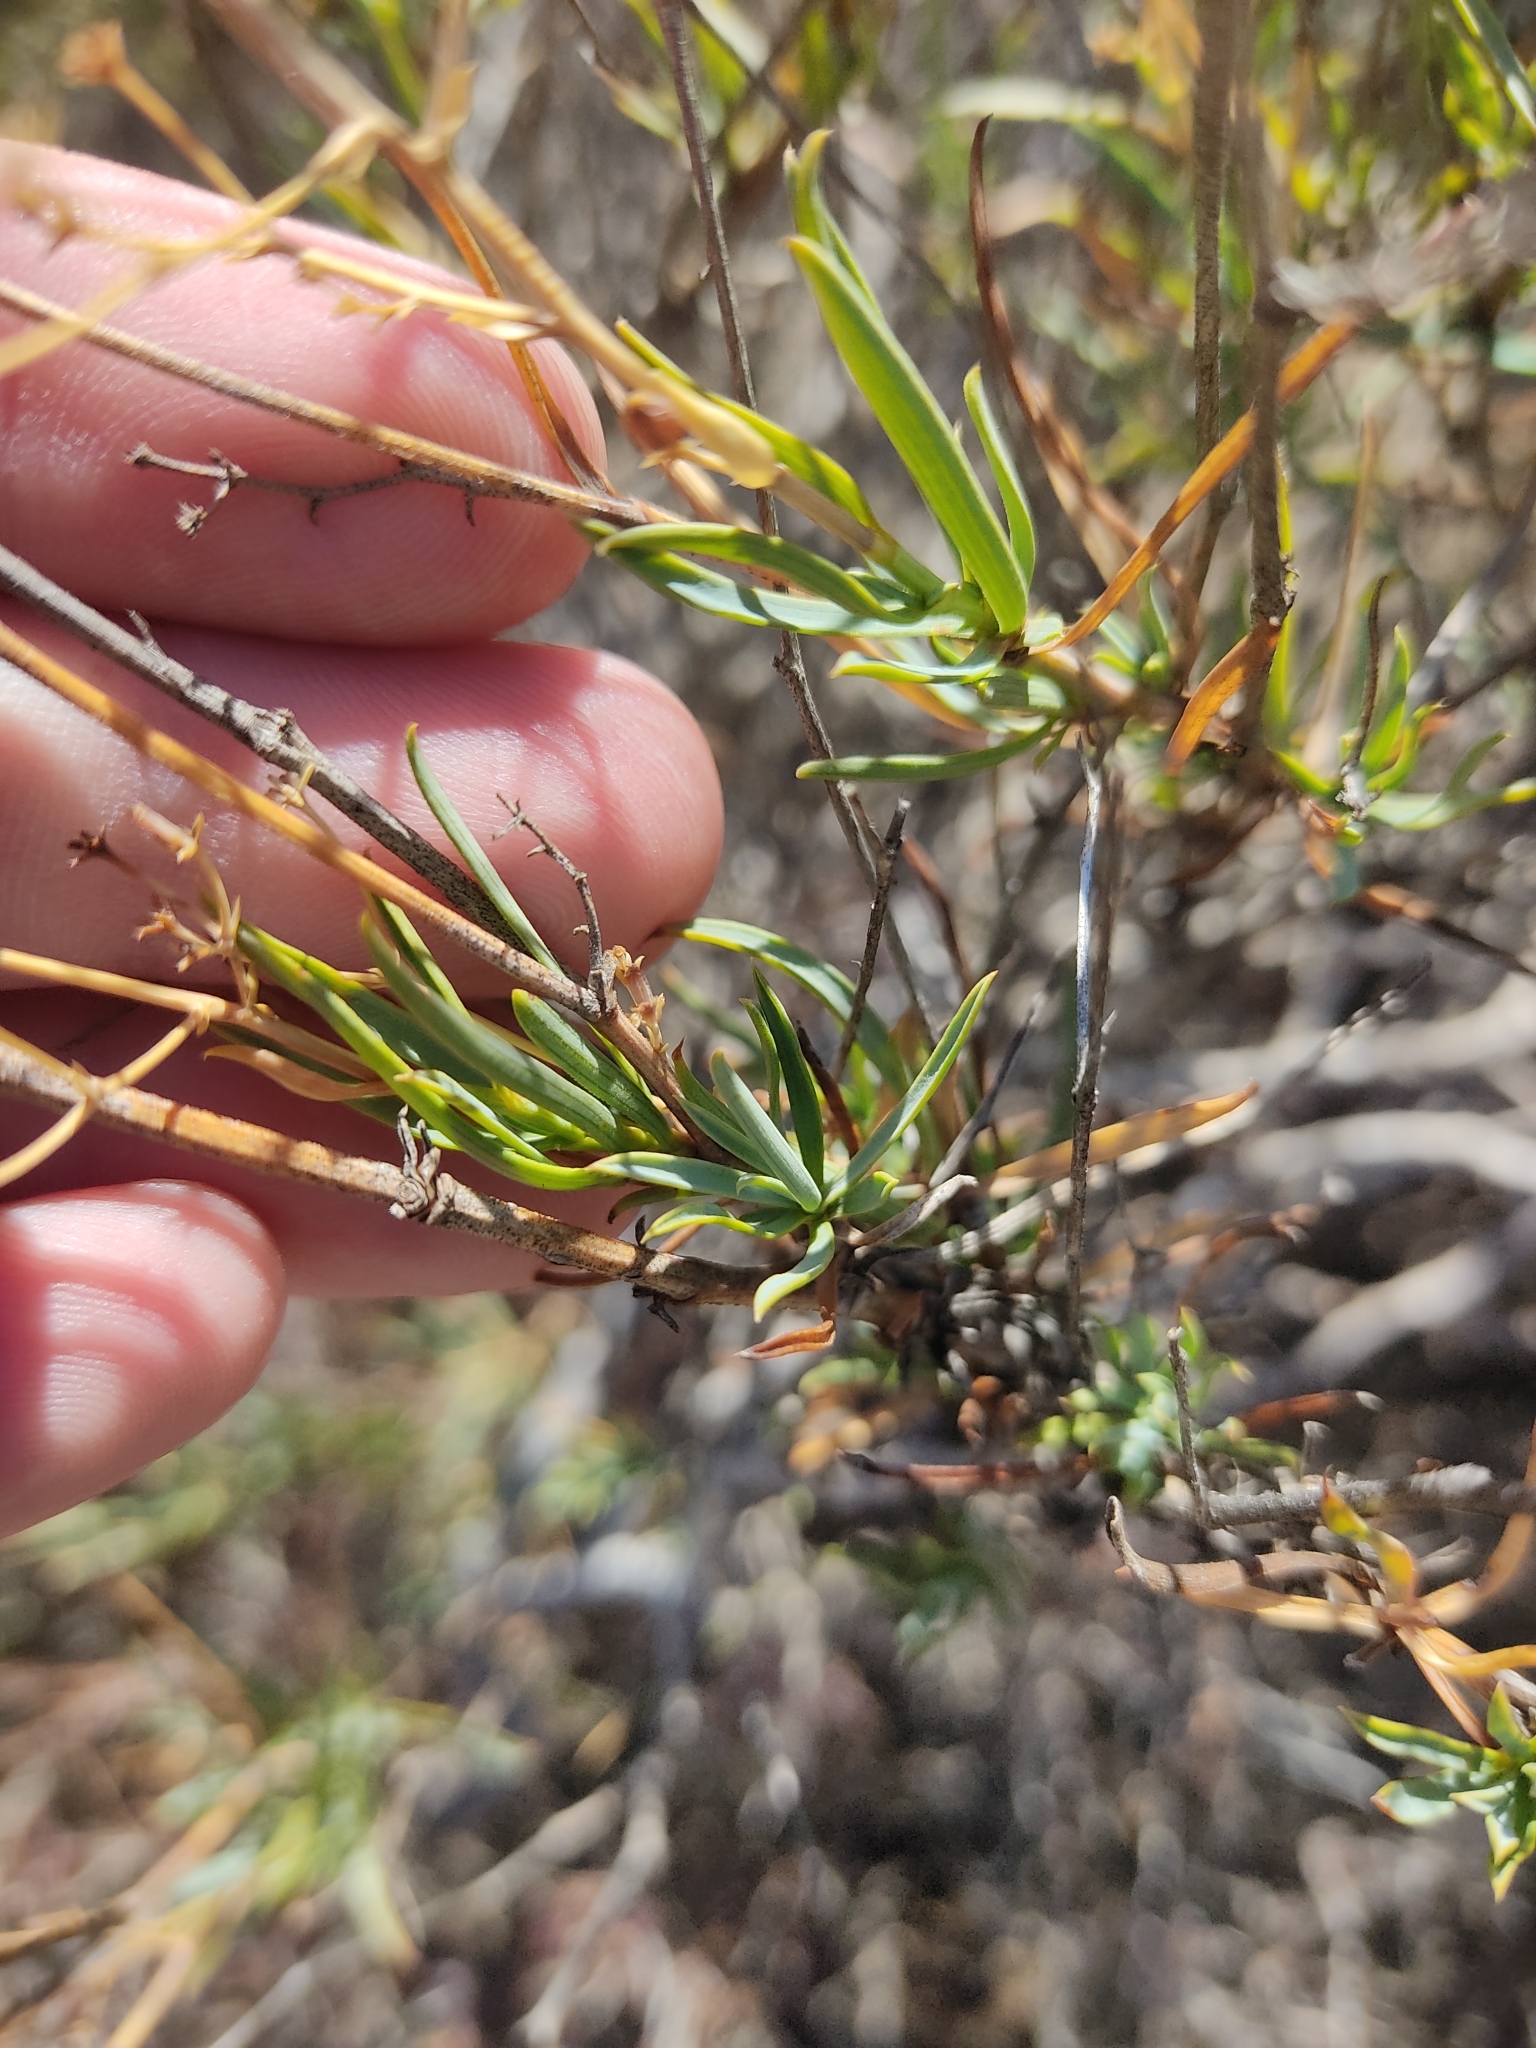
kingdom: Plantae
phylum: Tracheophyta
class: Magnoliopsida
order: Apiales
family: Apiaceae
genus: Bupleurum
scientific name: Bupleurum fruticescens
